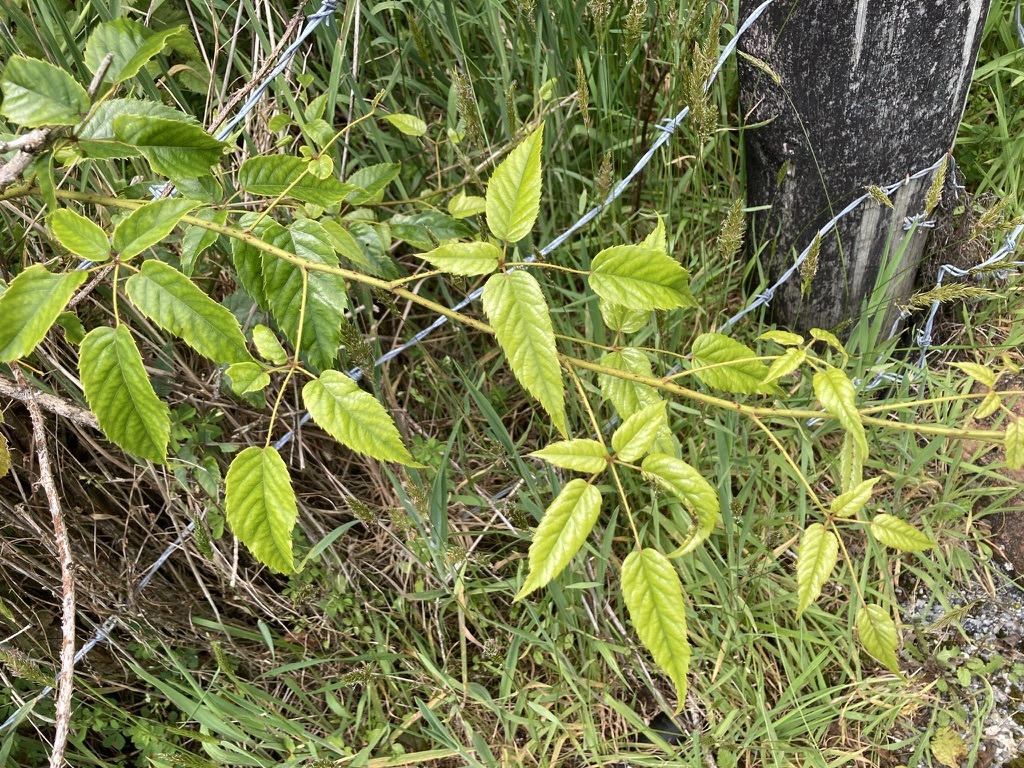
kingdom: Plantae
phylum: Tracheophyta
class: Magnoliopsida
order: Rosales
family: Rosaceae
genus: Rubus
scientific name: Rubus cissoides
